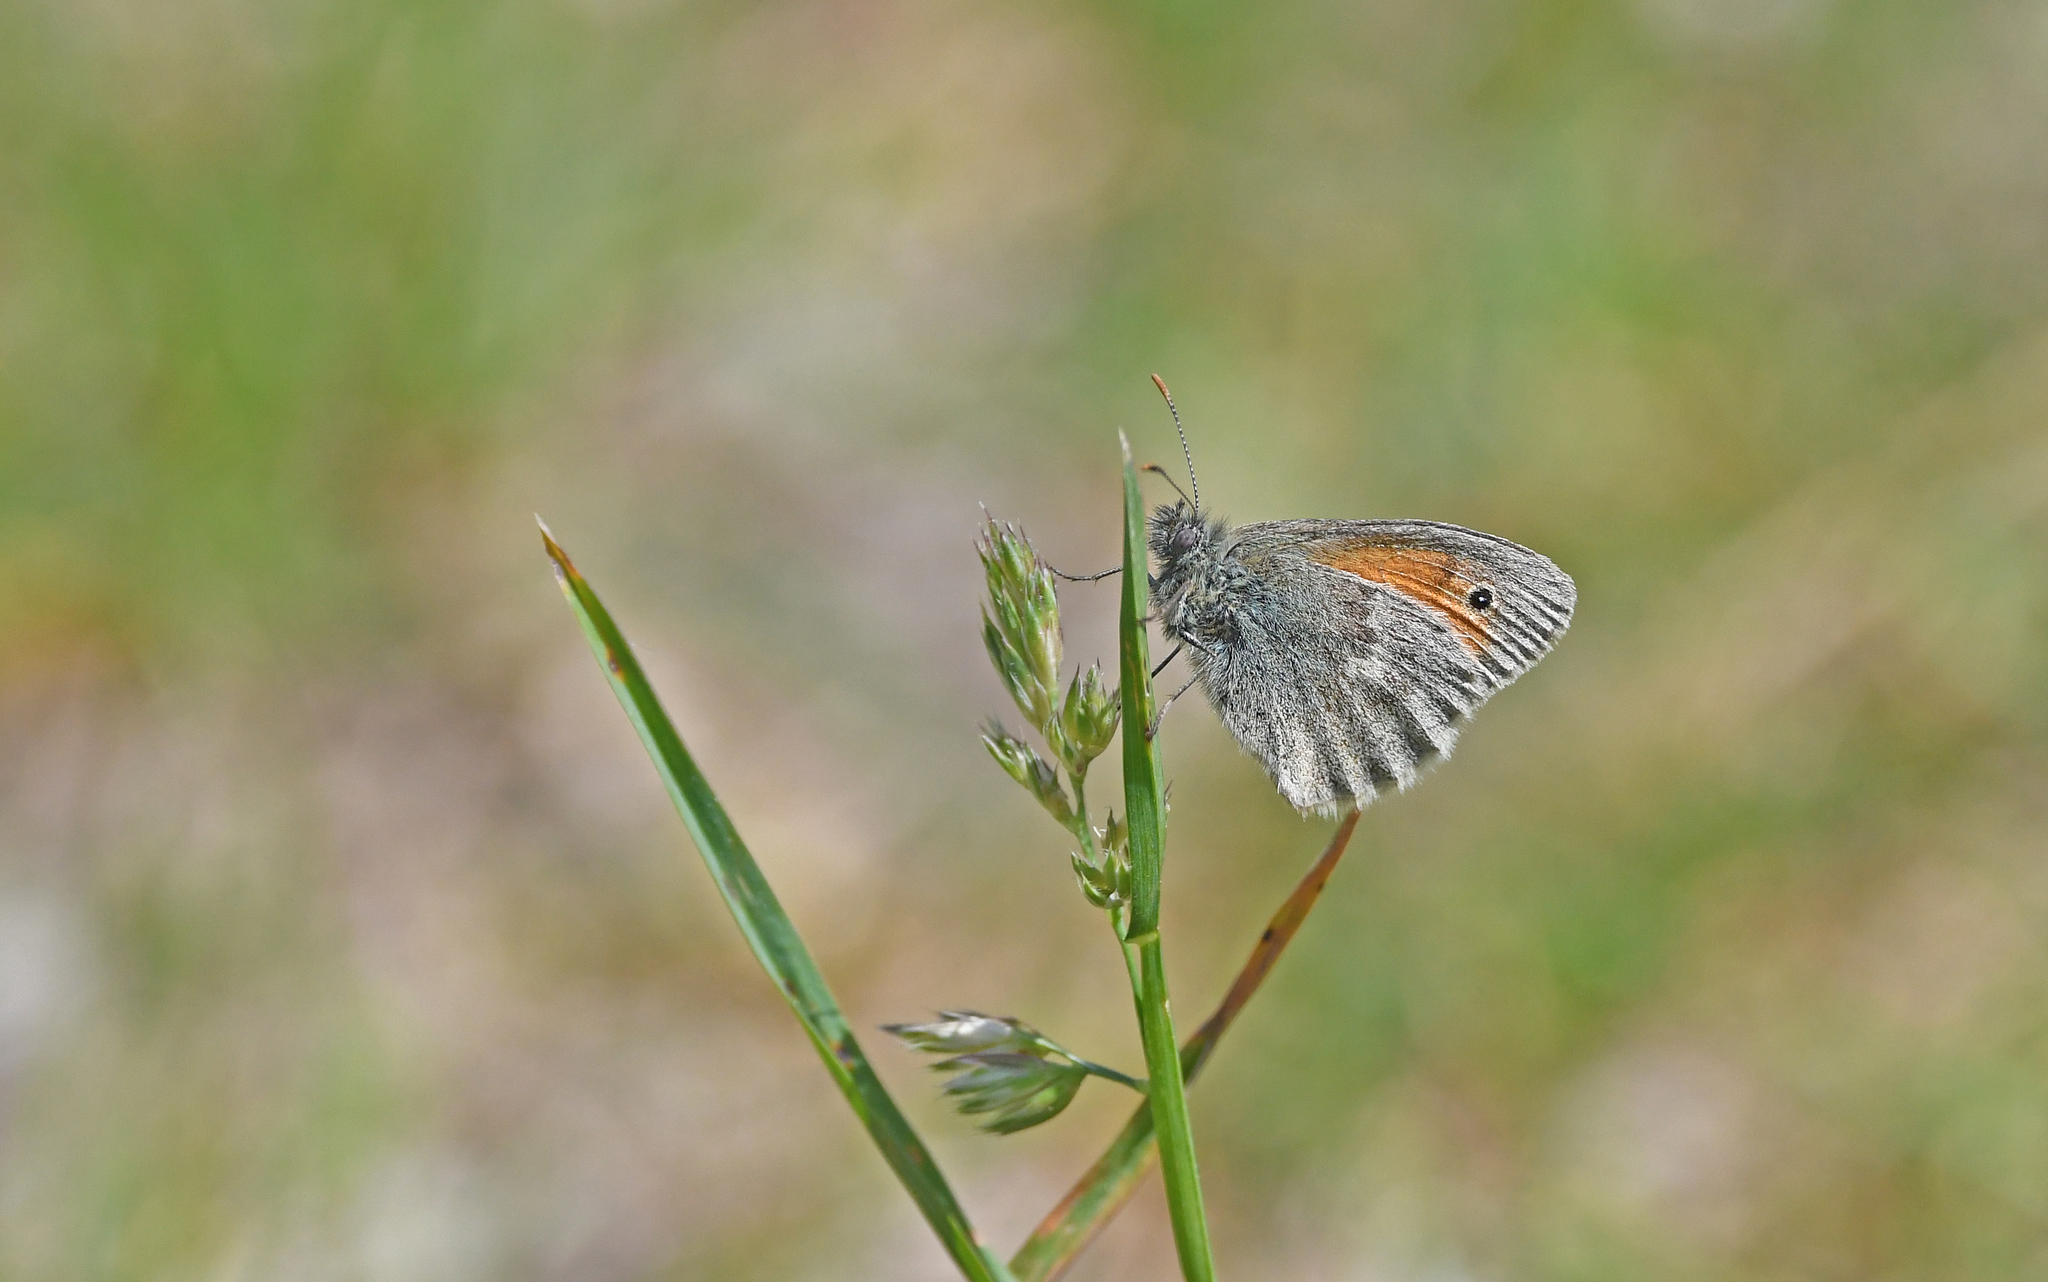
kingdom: Animalia
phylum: Arthropoda
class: Insecta
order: Lepidoptera
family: Nymphalidae
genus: Coenonympha
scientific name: Coenonympha pamphilus
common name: Small heath
